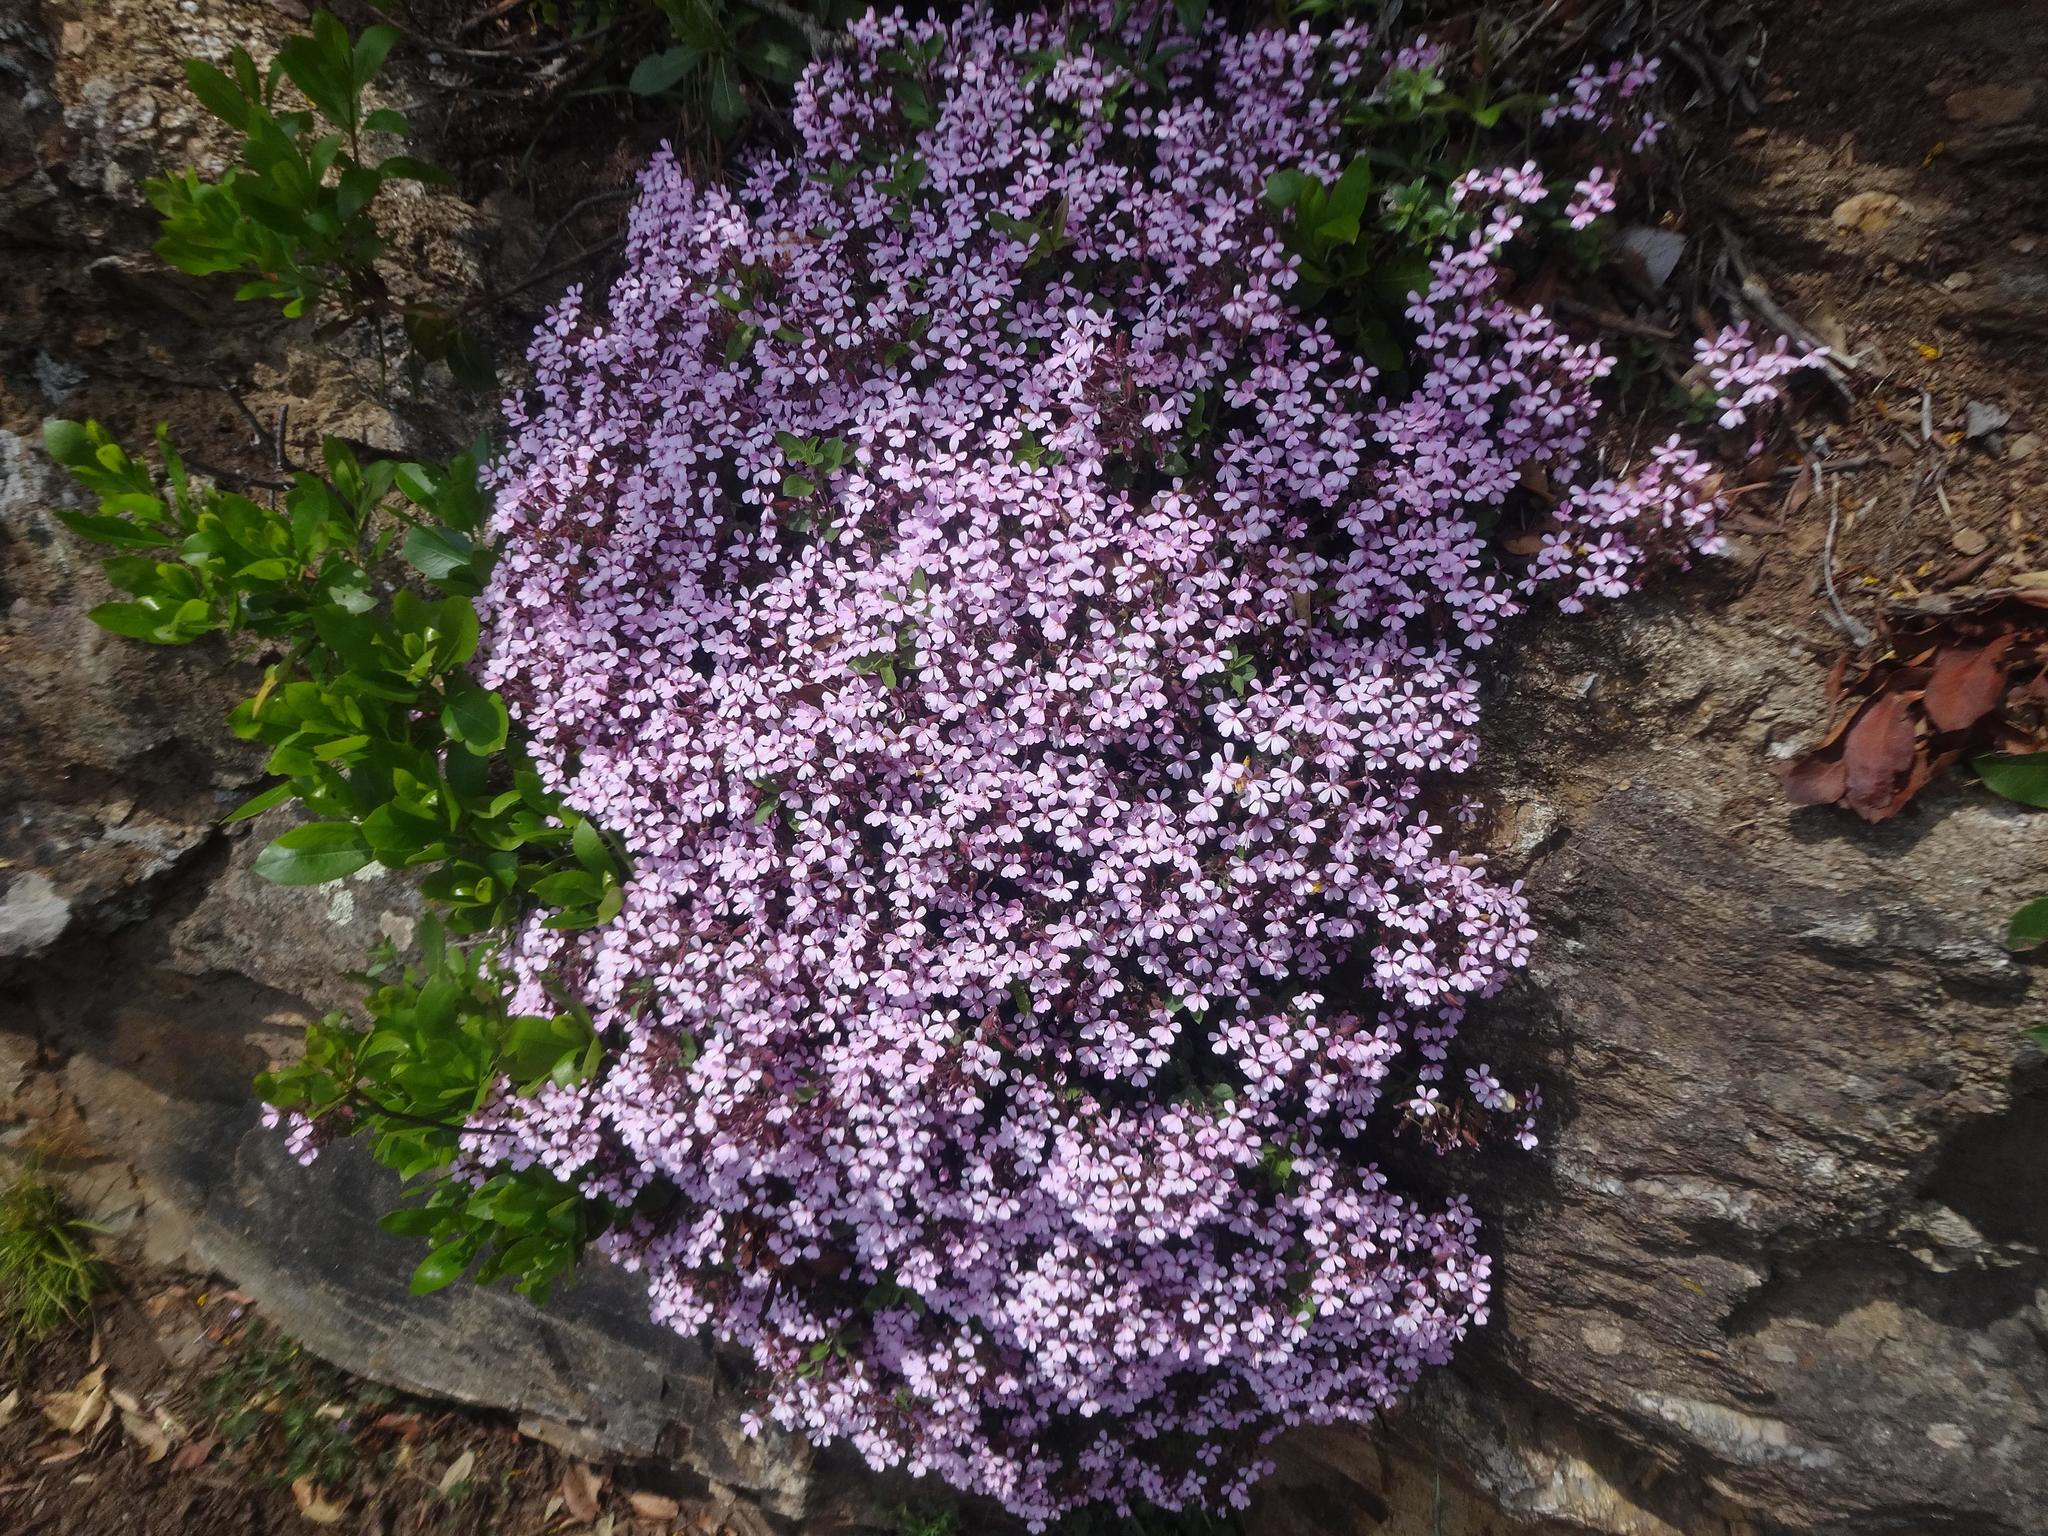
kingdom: Plantae
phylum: Tracheophyta
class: Magnoliopsida
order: Caryophyllales
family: Caryophyllaceae
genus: Saponaria
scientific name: Saponaria ocymoides
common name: Rock soapwort
